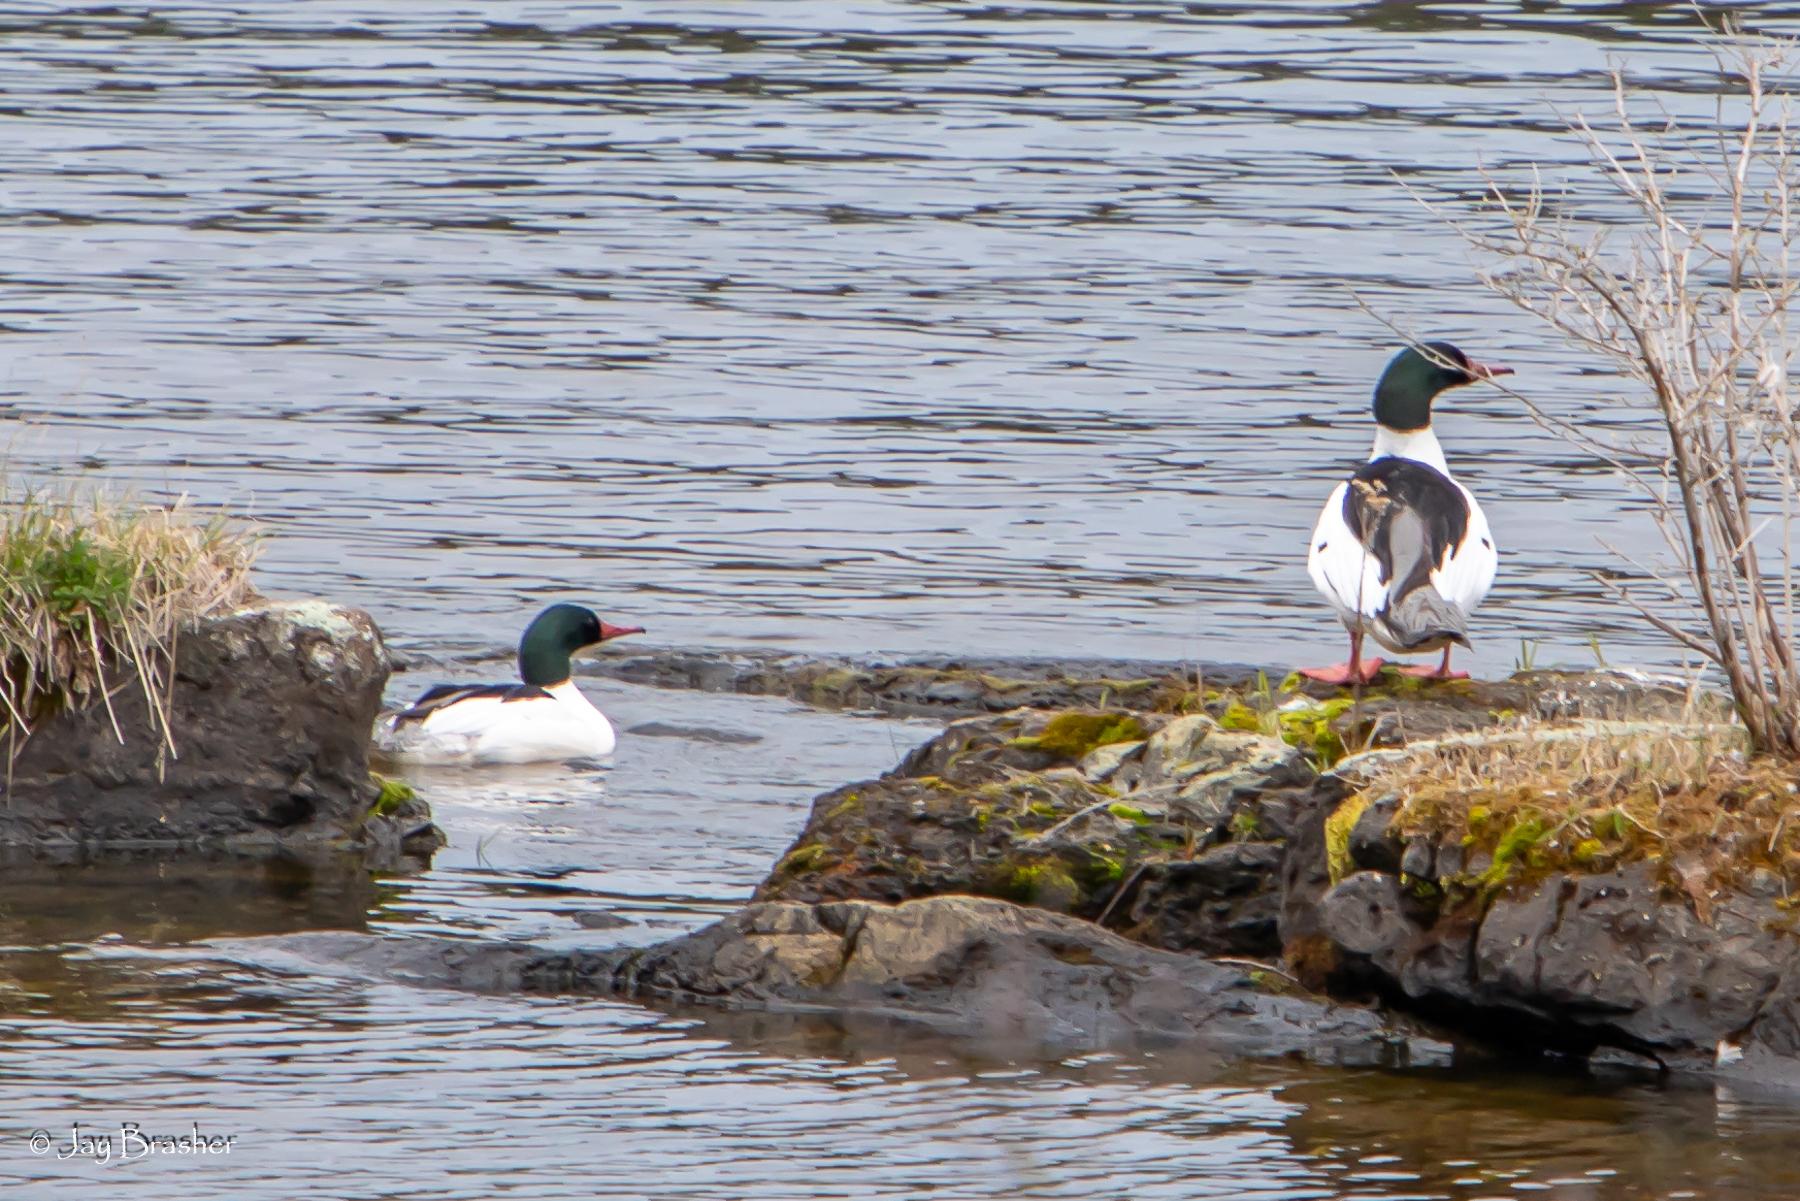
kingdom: Animalia
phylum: Chordata
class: Aves
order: Anseriformes
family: Anatidae
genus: Mergus
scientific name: Mergus merganser
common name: Common merganser
